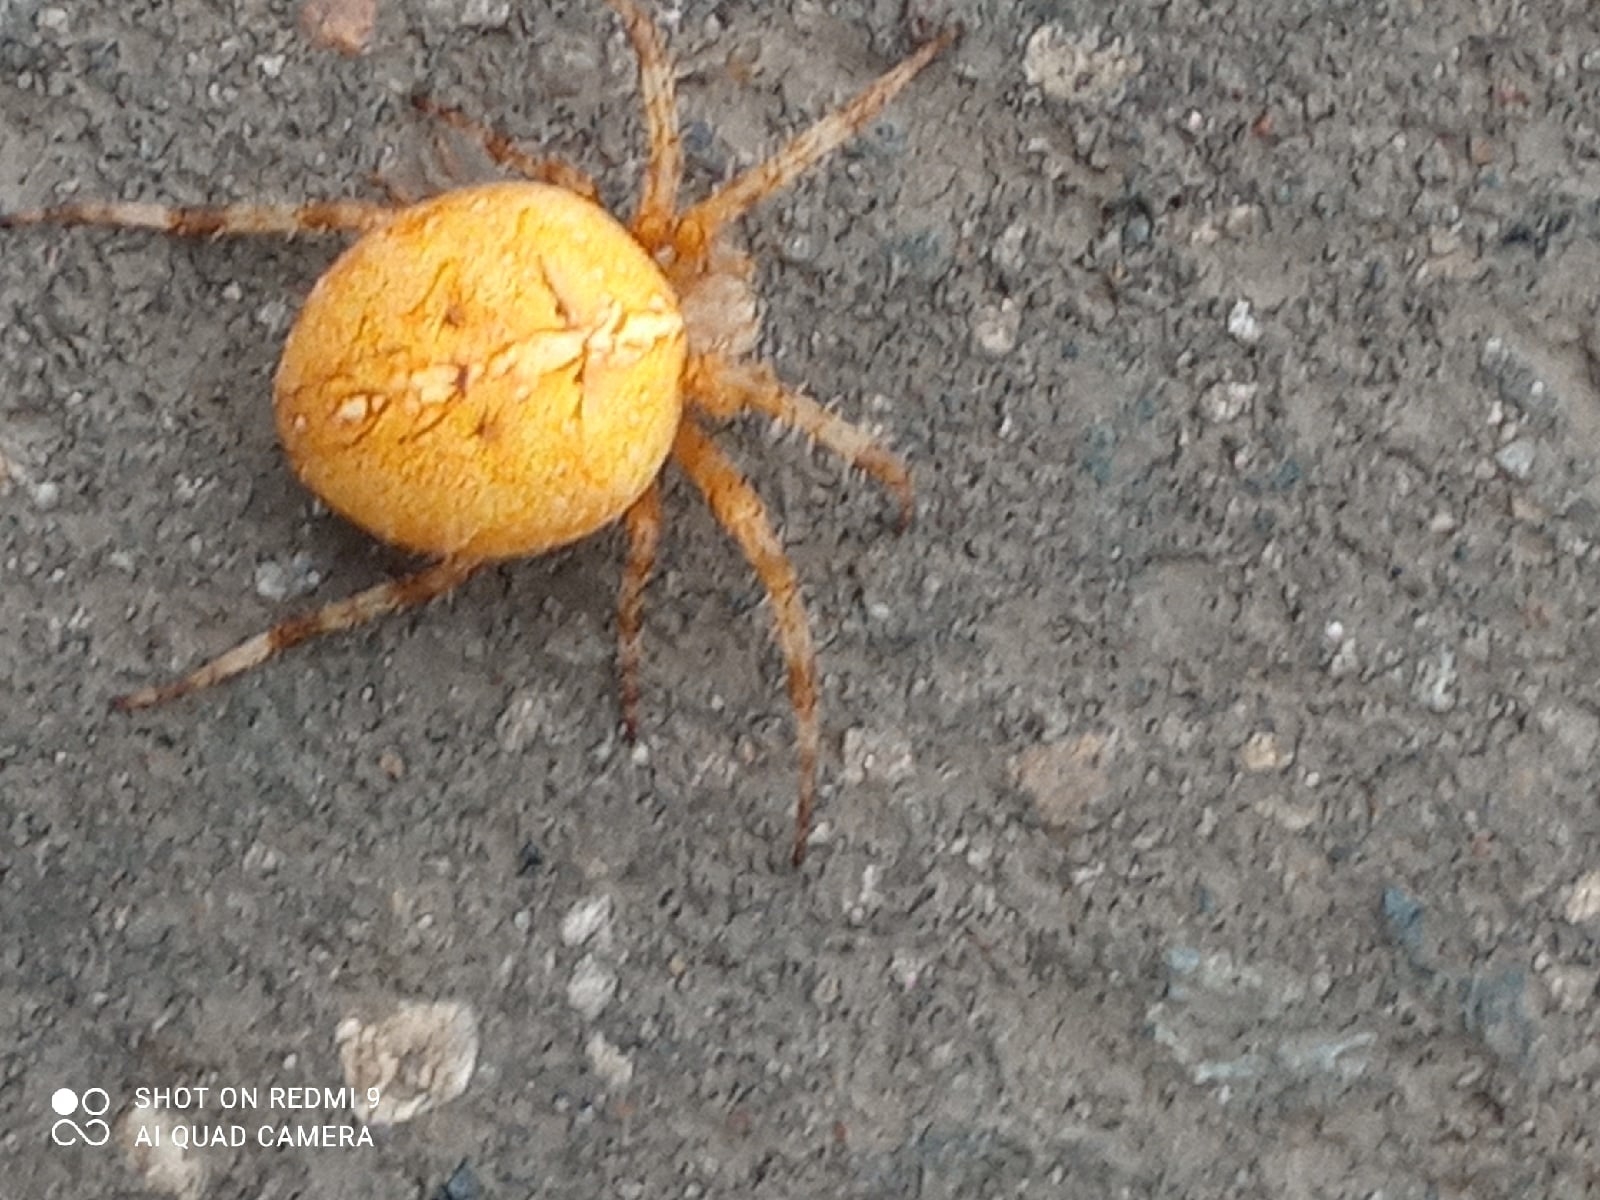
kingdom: Animalia
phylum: Arthropoda
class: Arachnida
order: Araneae
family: Araneidae
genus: Araneus
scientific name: Araneus diadematus
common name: Cross orbweaver
